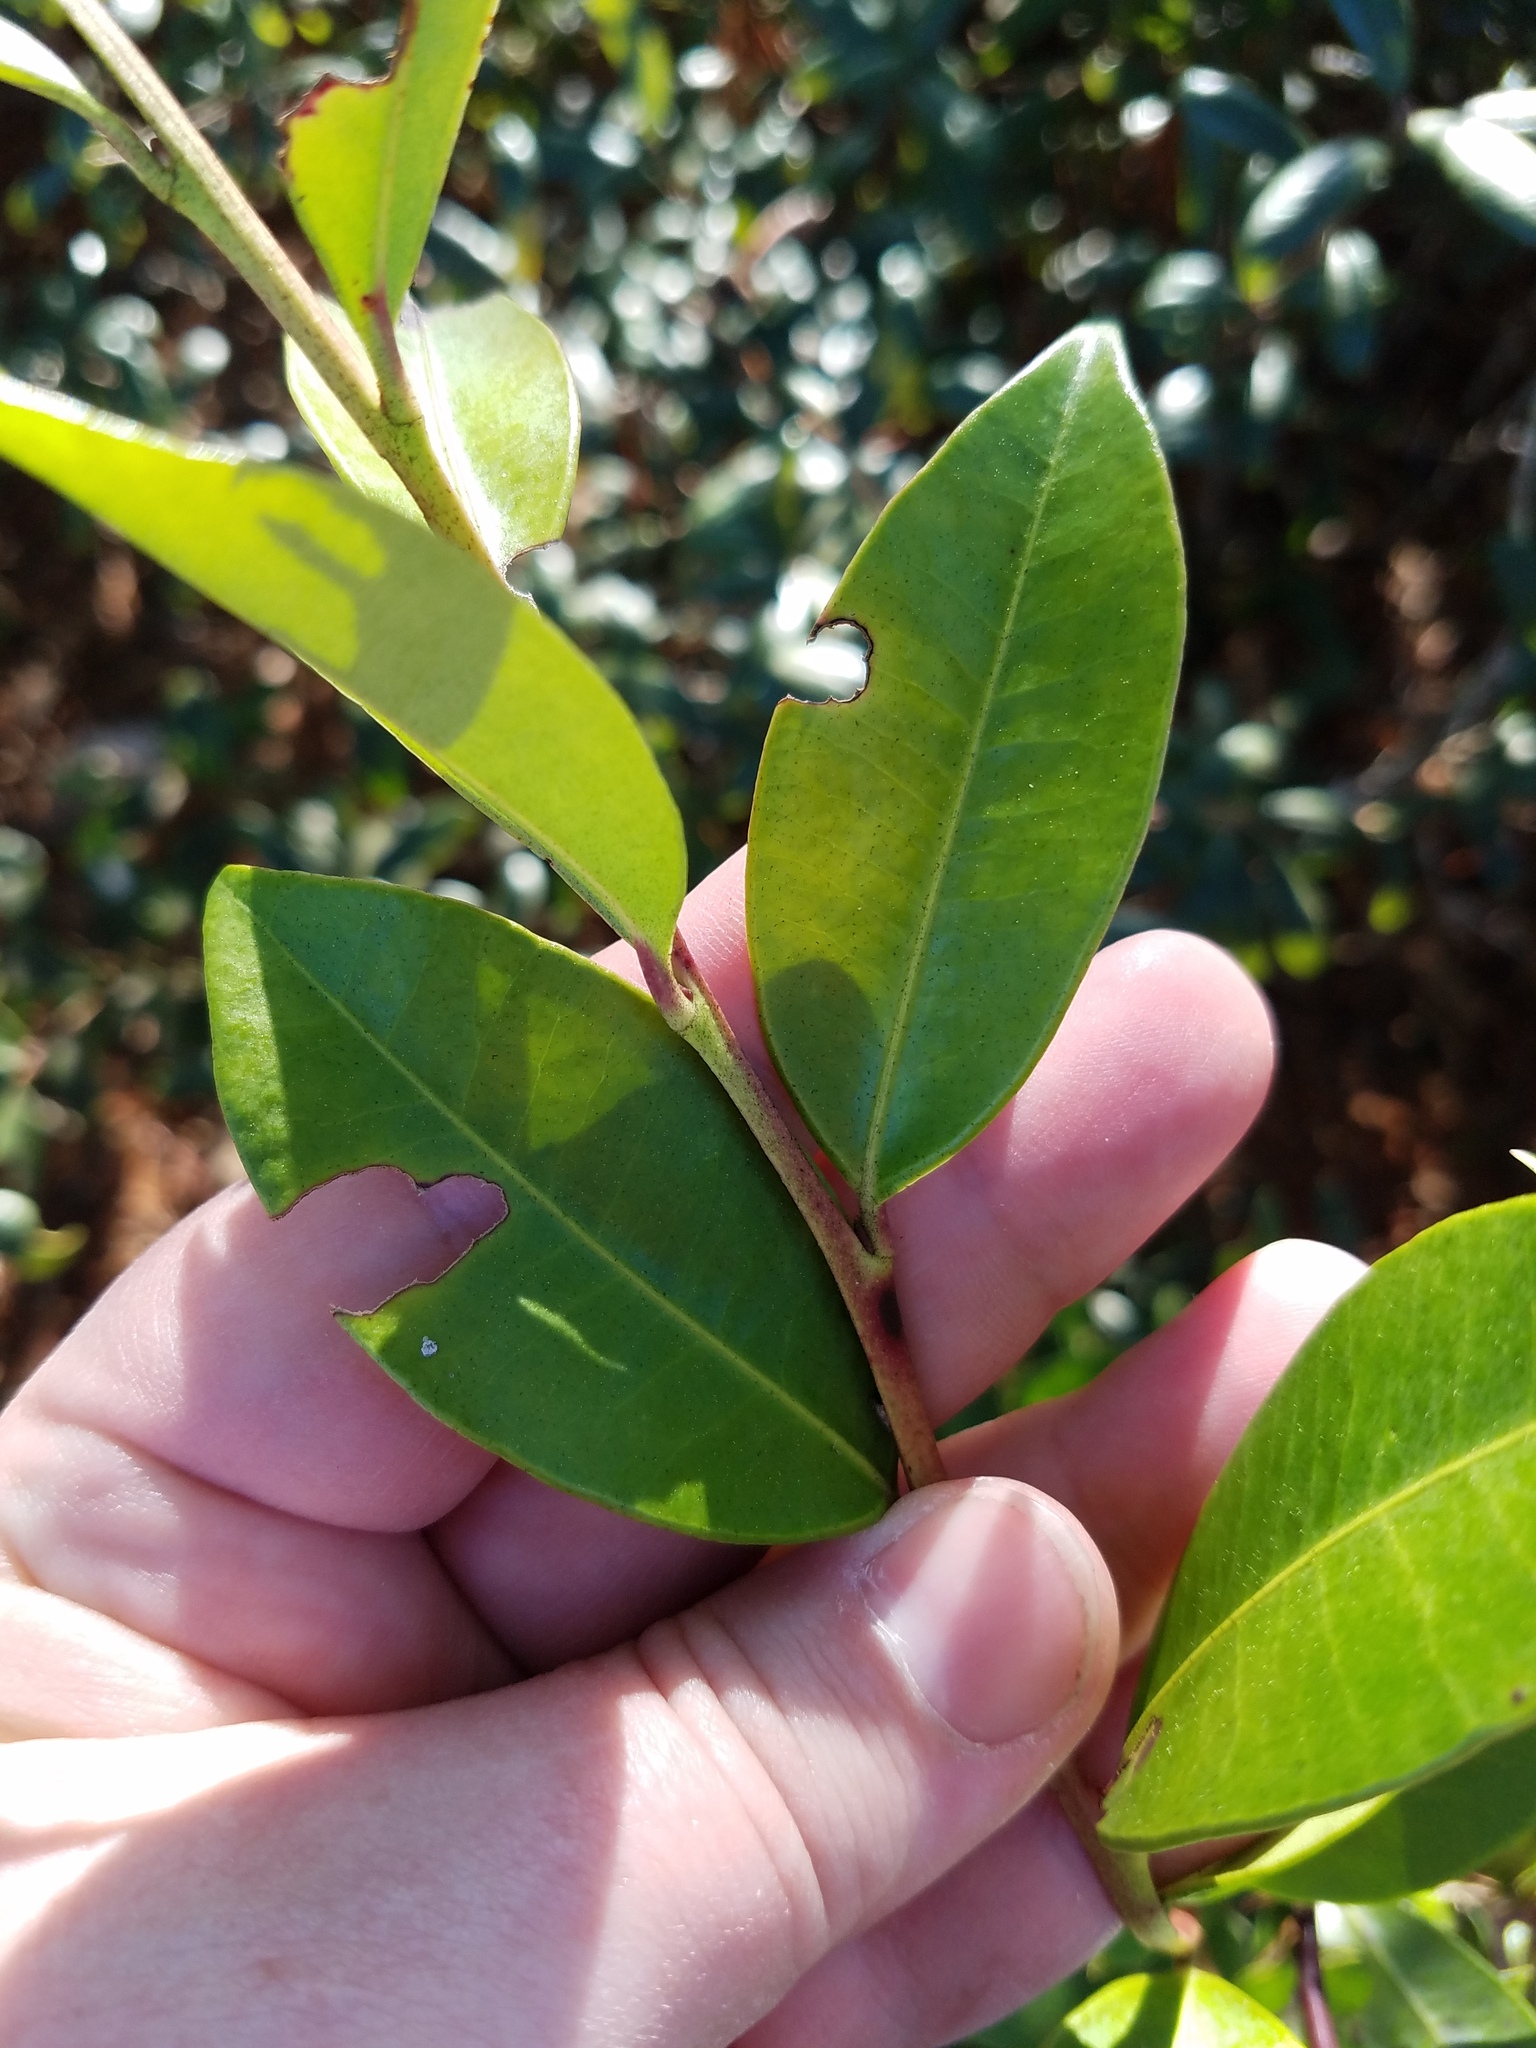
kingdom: Plantae
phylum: Tracheophyta
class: Magnoliopsida
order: Ericales
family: Ericaceae
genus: Lyonia
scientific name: Lyonia lucida
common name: Fetterbush
